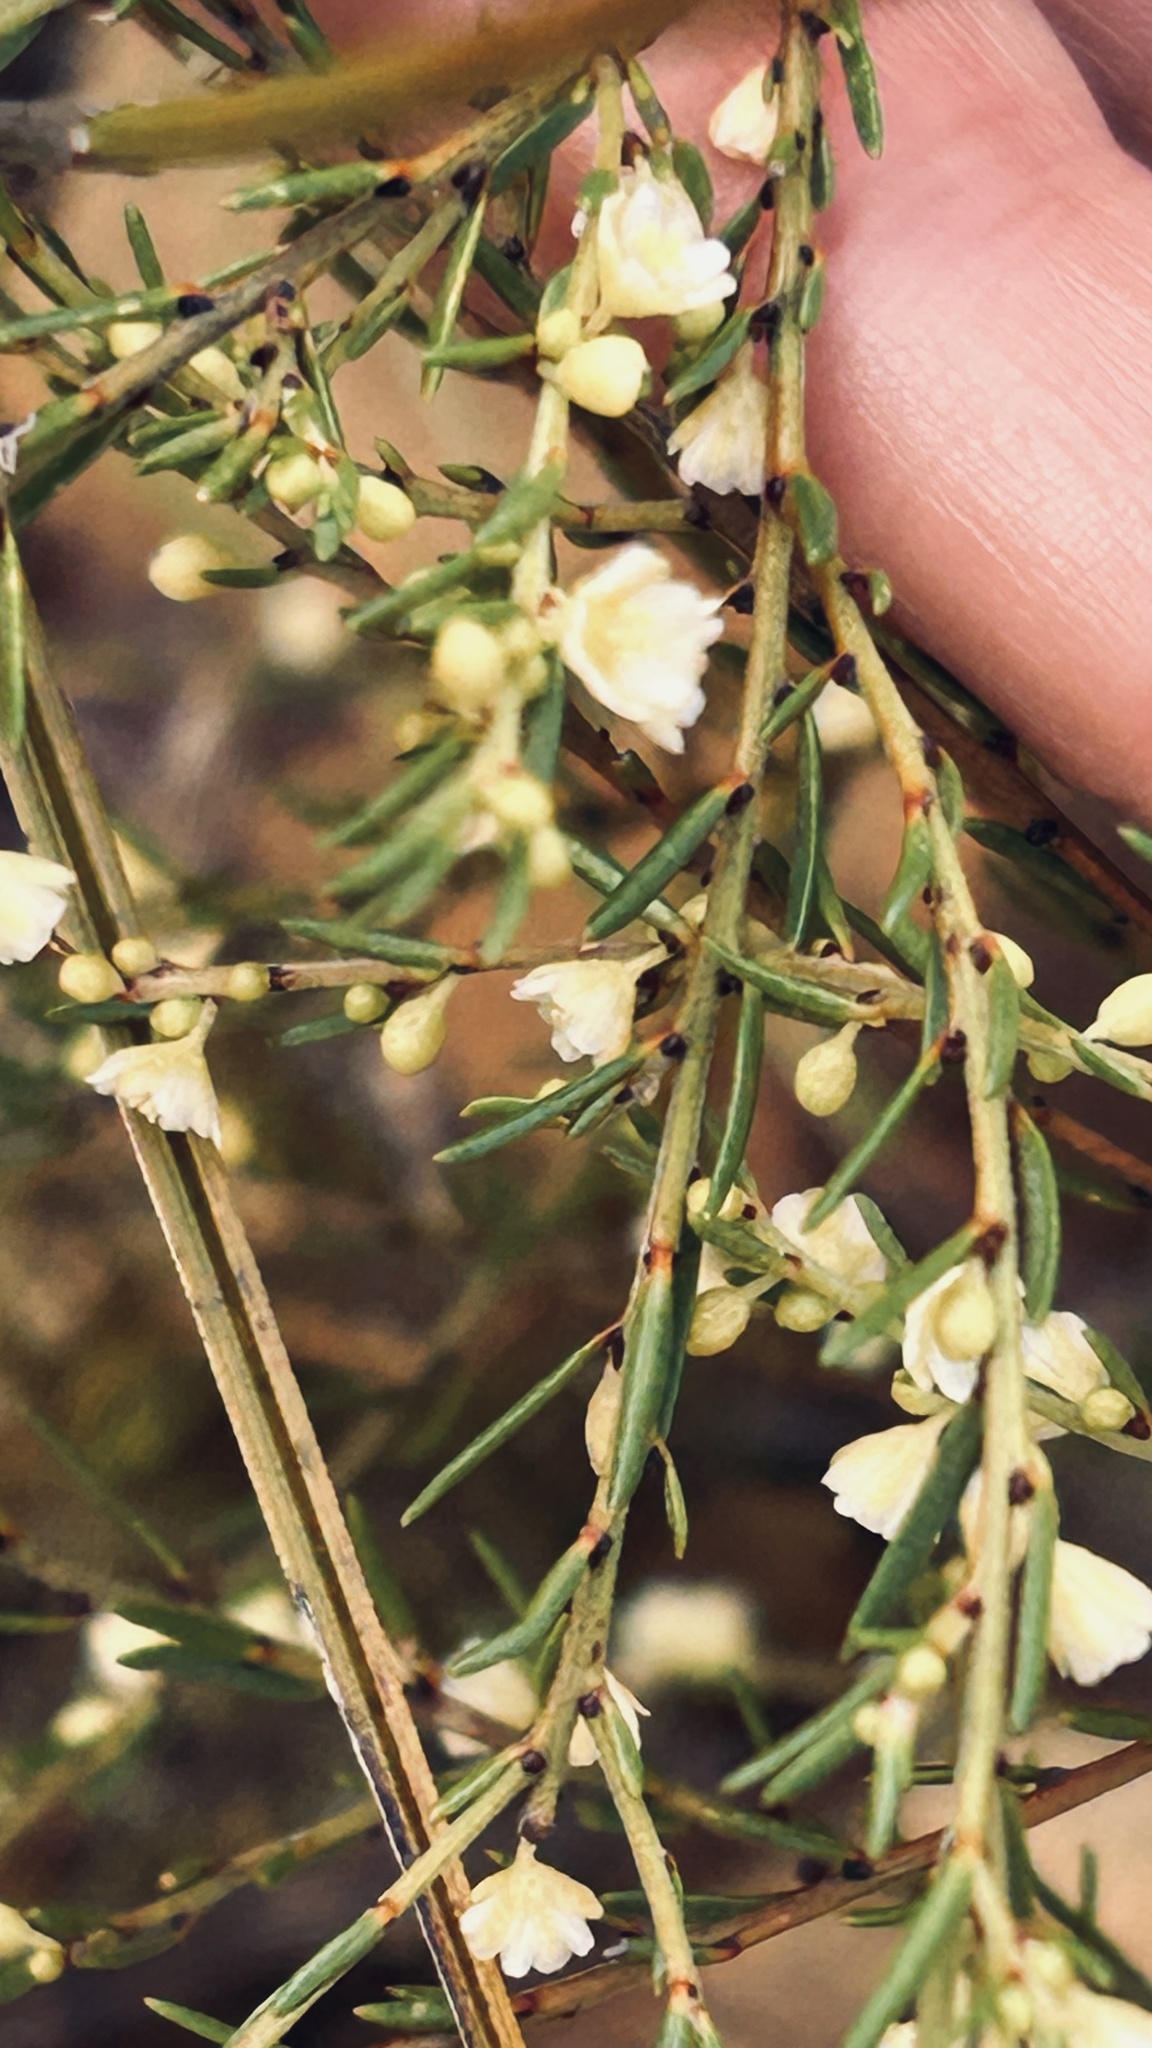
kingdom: Plantae
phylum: Tracheophyta
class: Magnoliopsida
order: Malpighiales
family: Peraceae
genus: Clutia
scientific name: Clutia ericoides
